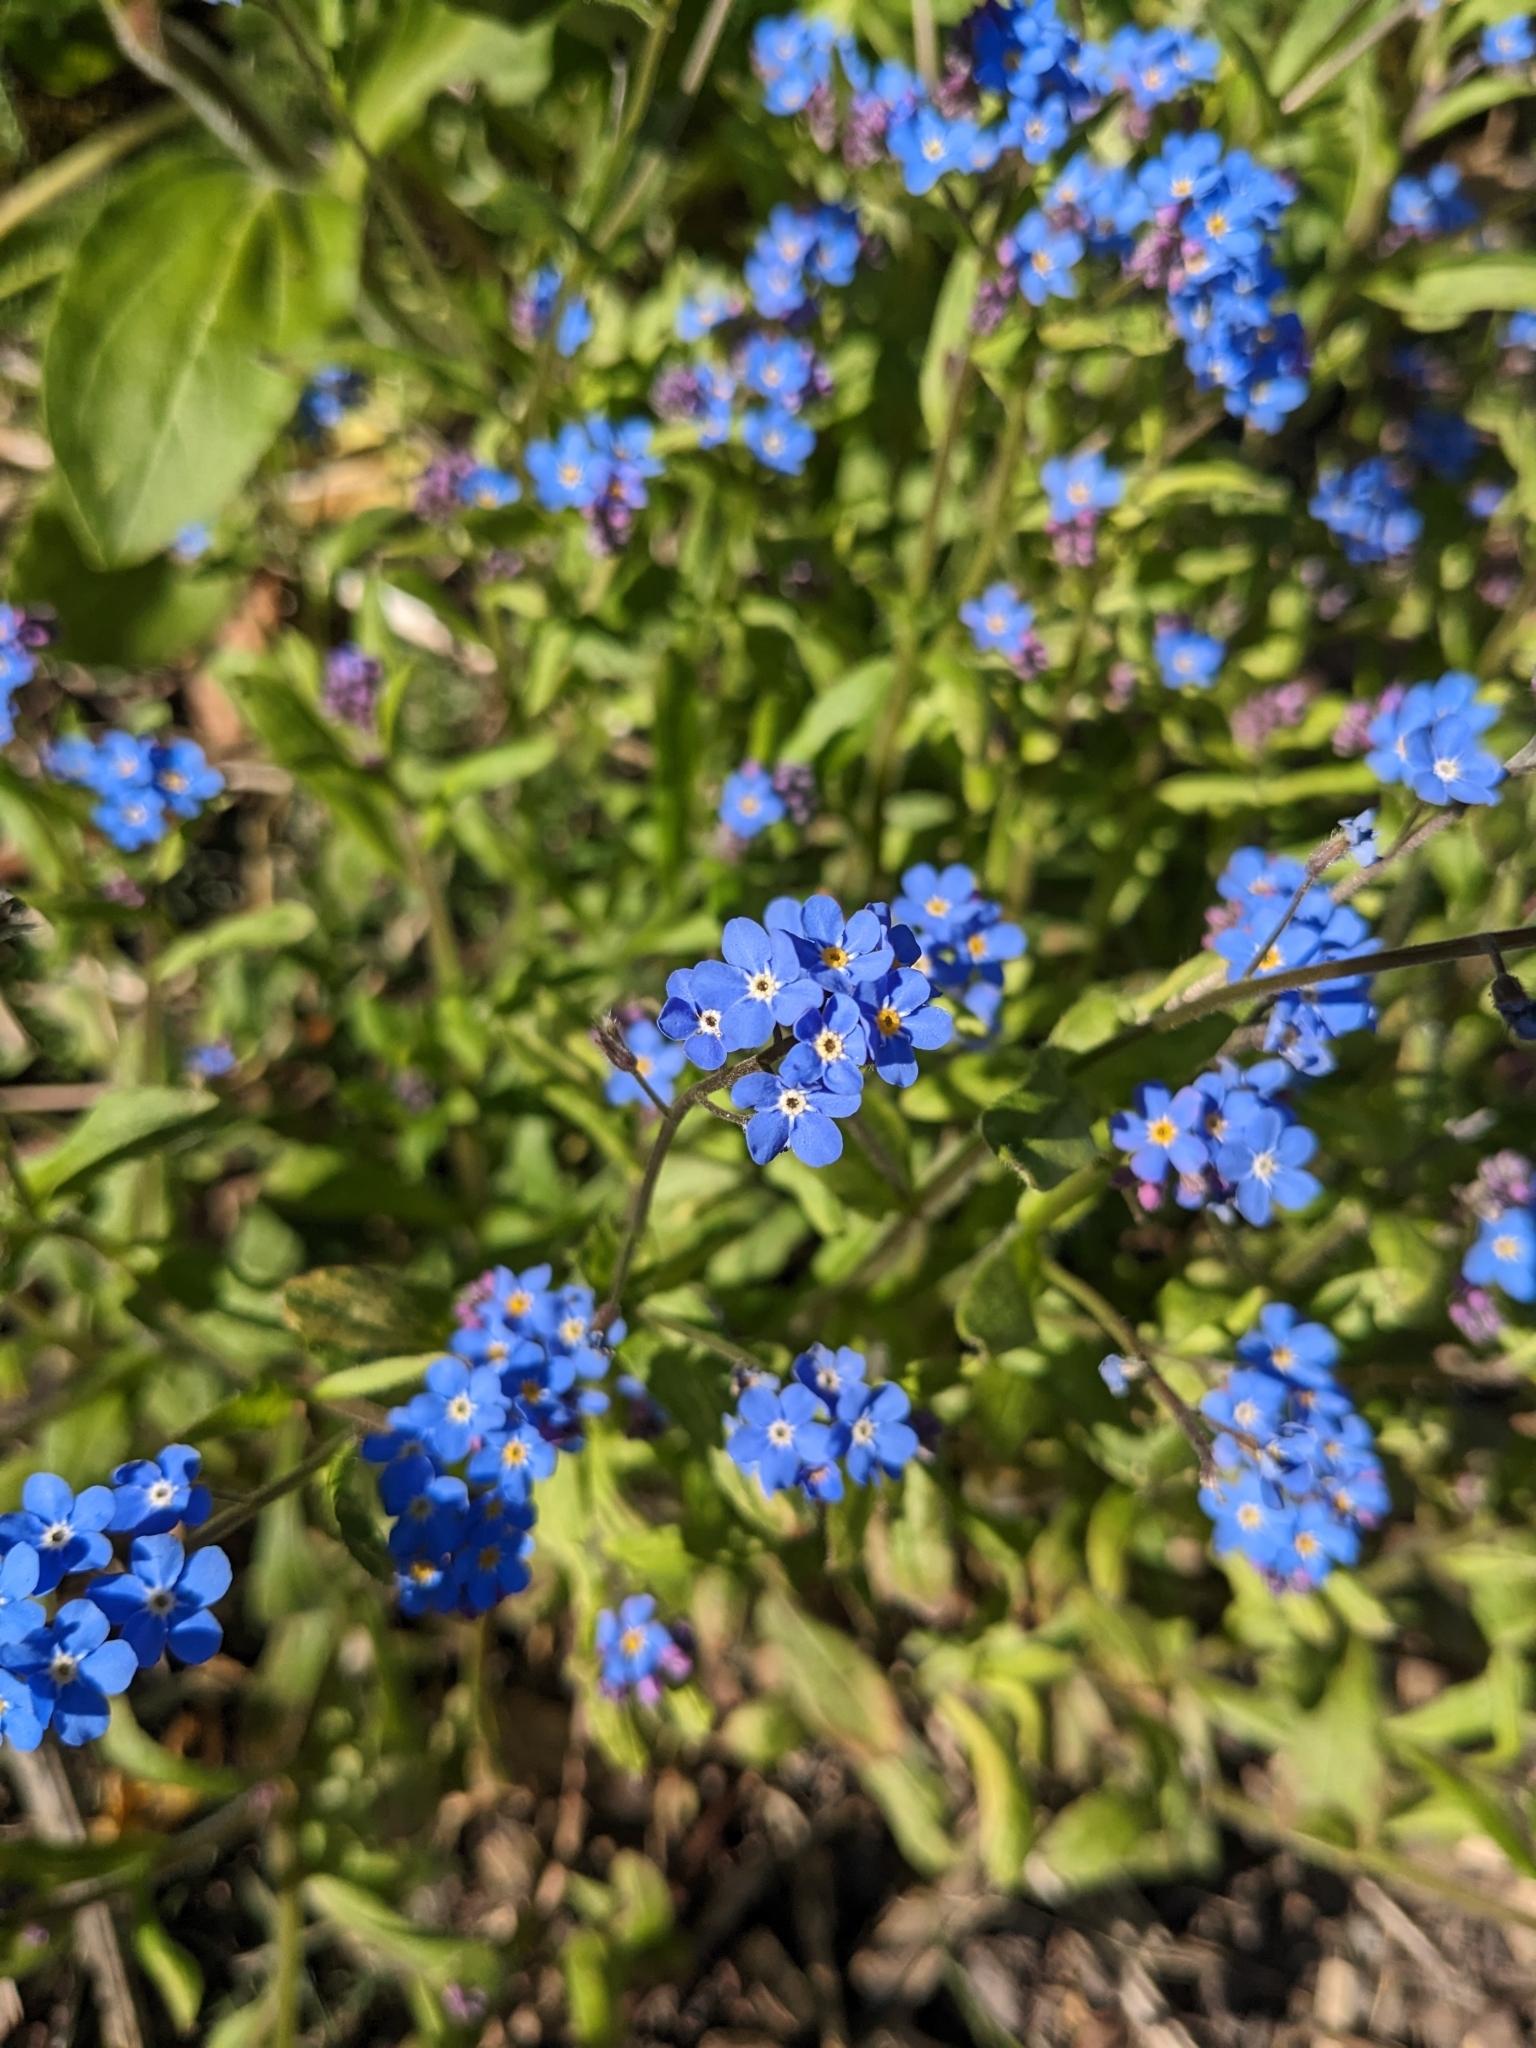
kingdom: Plantae
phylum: Tracheophyta
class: Magnoliopsida
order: Boraginales
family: Boraginaceae
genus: Myosotis
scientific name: Myosotis sylvatica
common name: Wood forget-me-not
